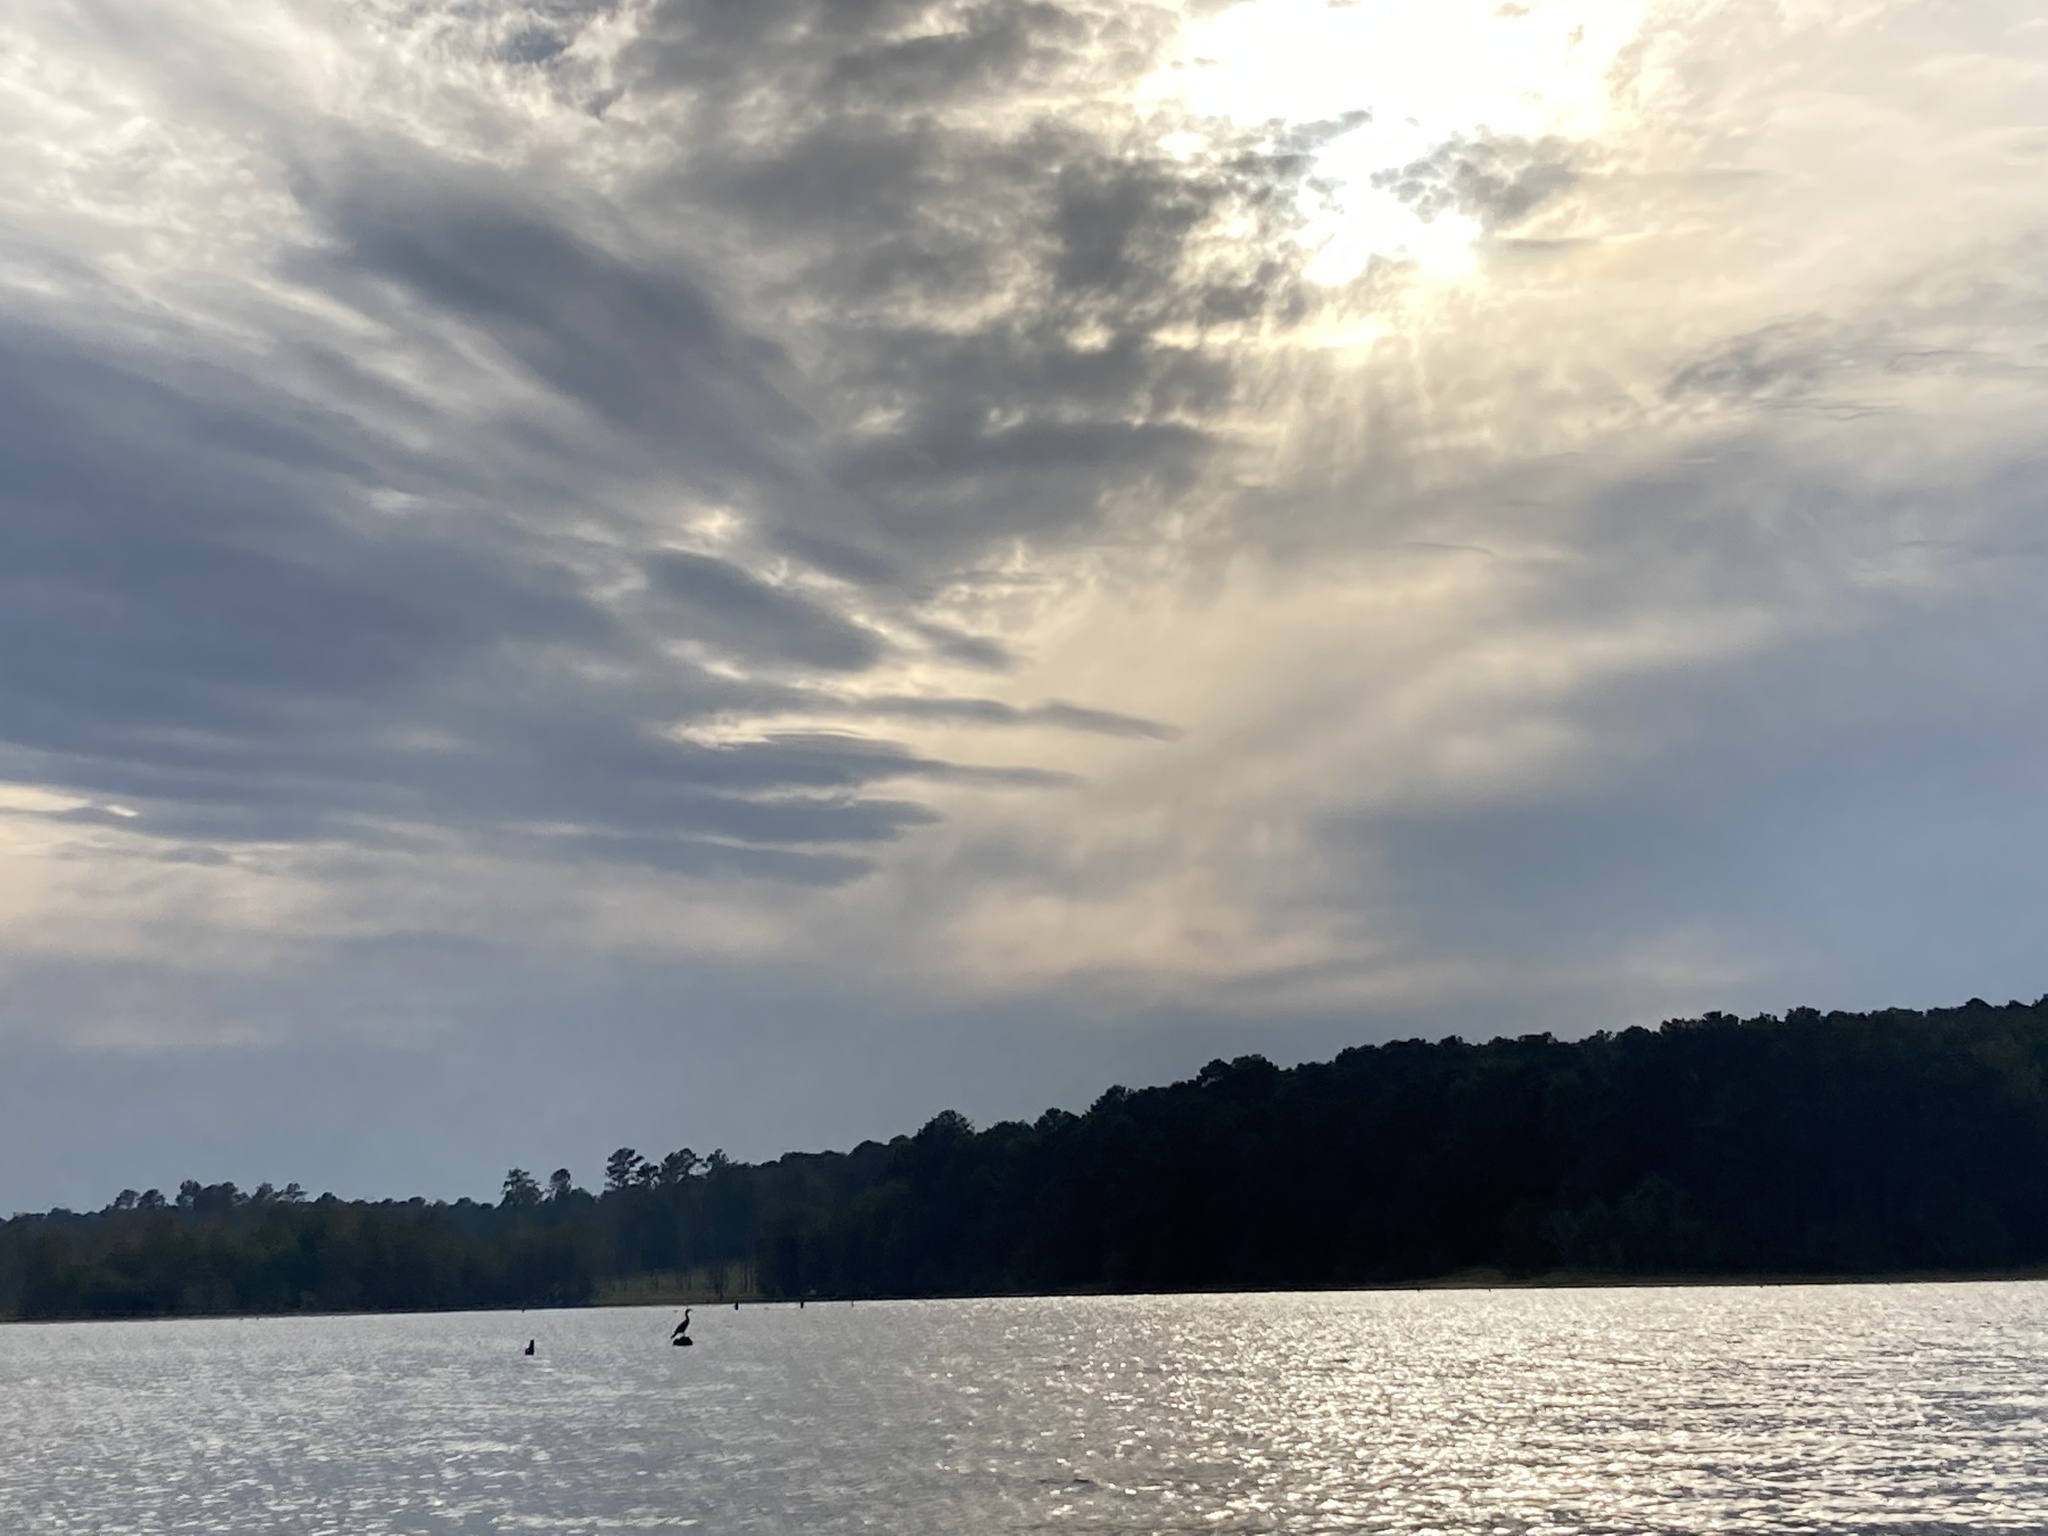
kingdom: Animalia
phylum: Chordata
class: Aves
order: Suliformes
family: Phalacrocoracidae
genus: Phalacrocorax
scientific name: Phalacrocorax auritus
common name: Double-crested cormorant
